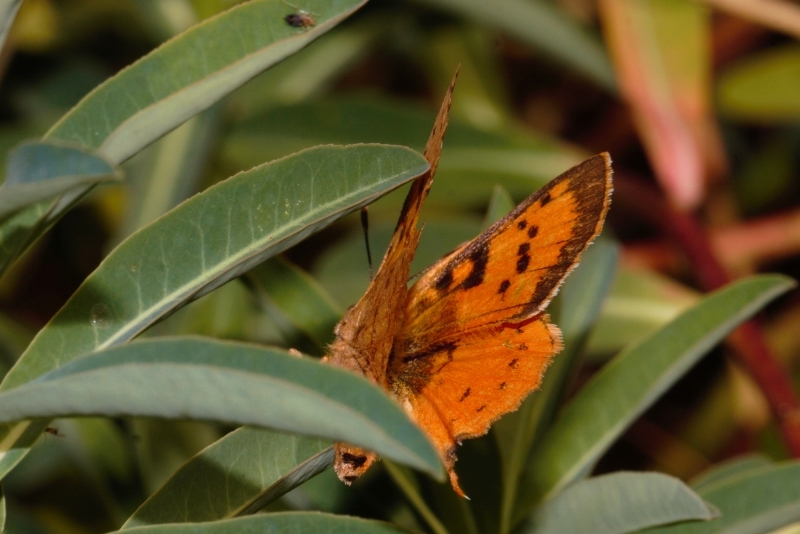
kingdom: Animalia
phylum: Arthropoda
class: Insecta
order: Lepidoptera
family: Lycaenidae
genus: Axiocerses
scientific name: Axiocerses perion
